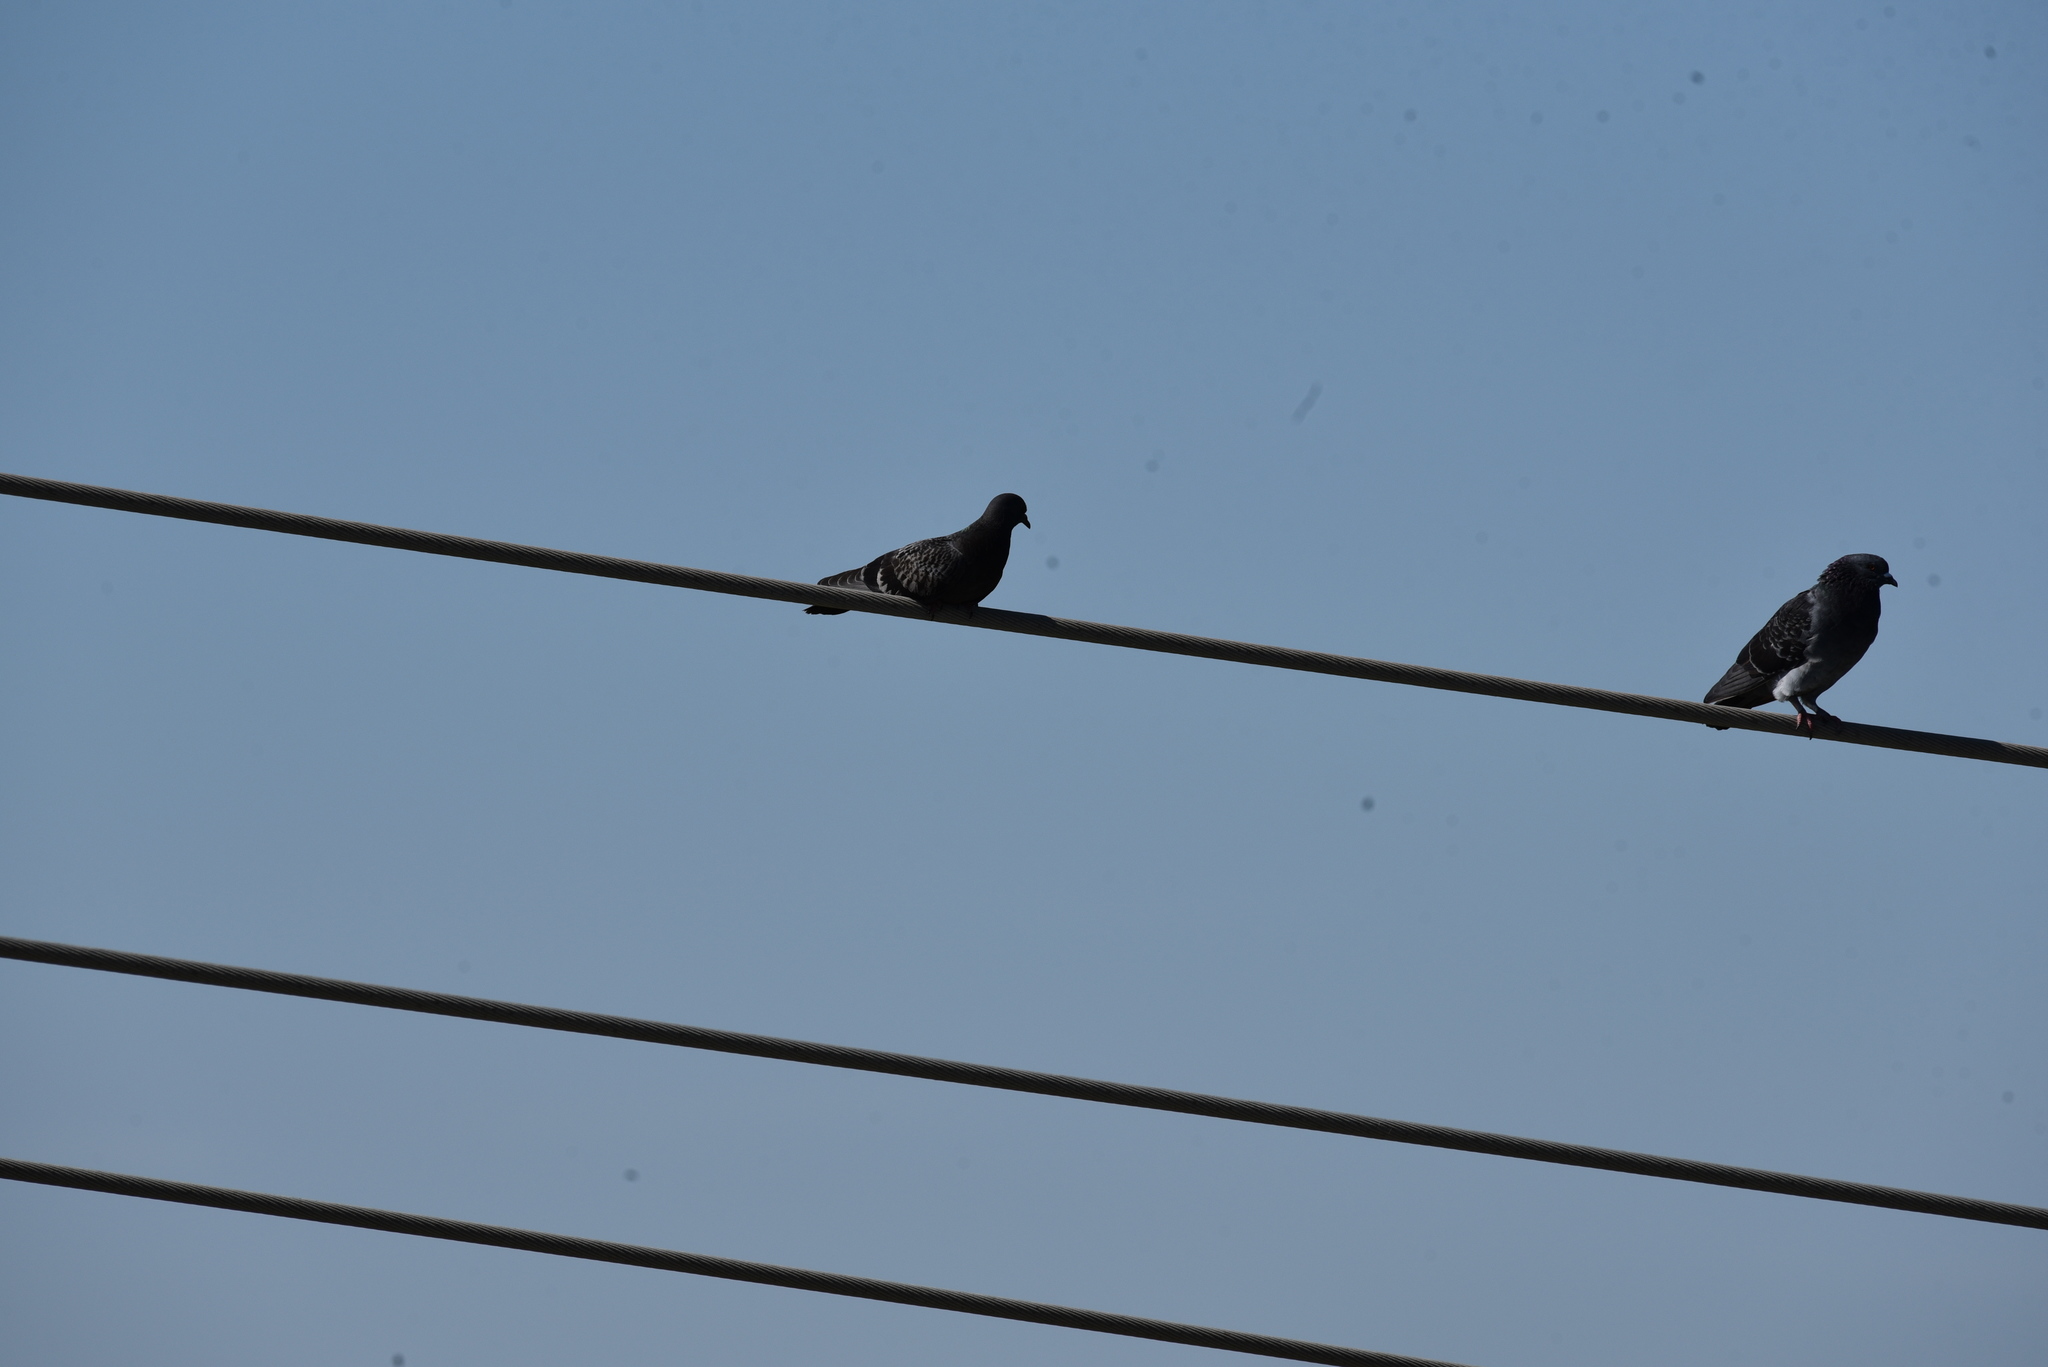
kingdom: Animalia
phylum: Chordata
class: Aves
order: Columbiformes
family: Columbidae
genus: Columba
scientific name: Columba livia
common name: Rock pigeon
